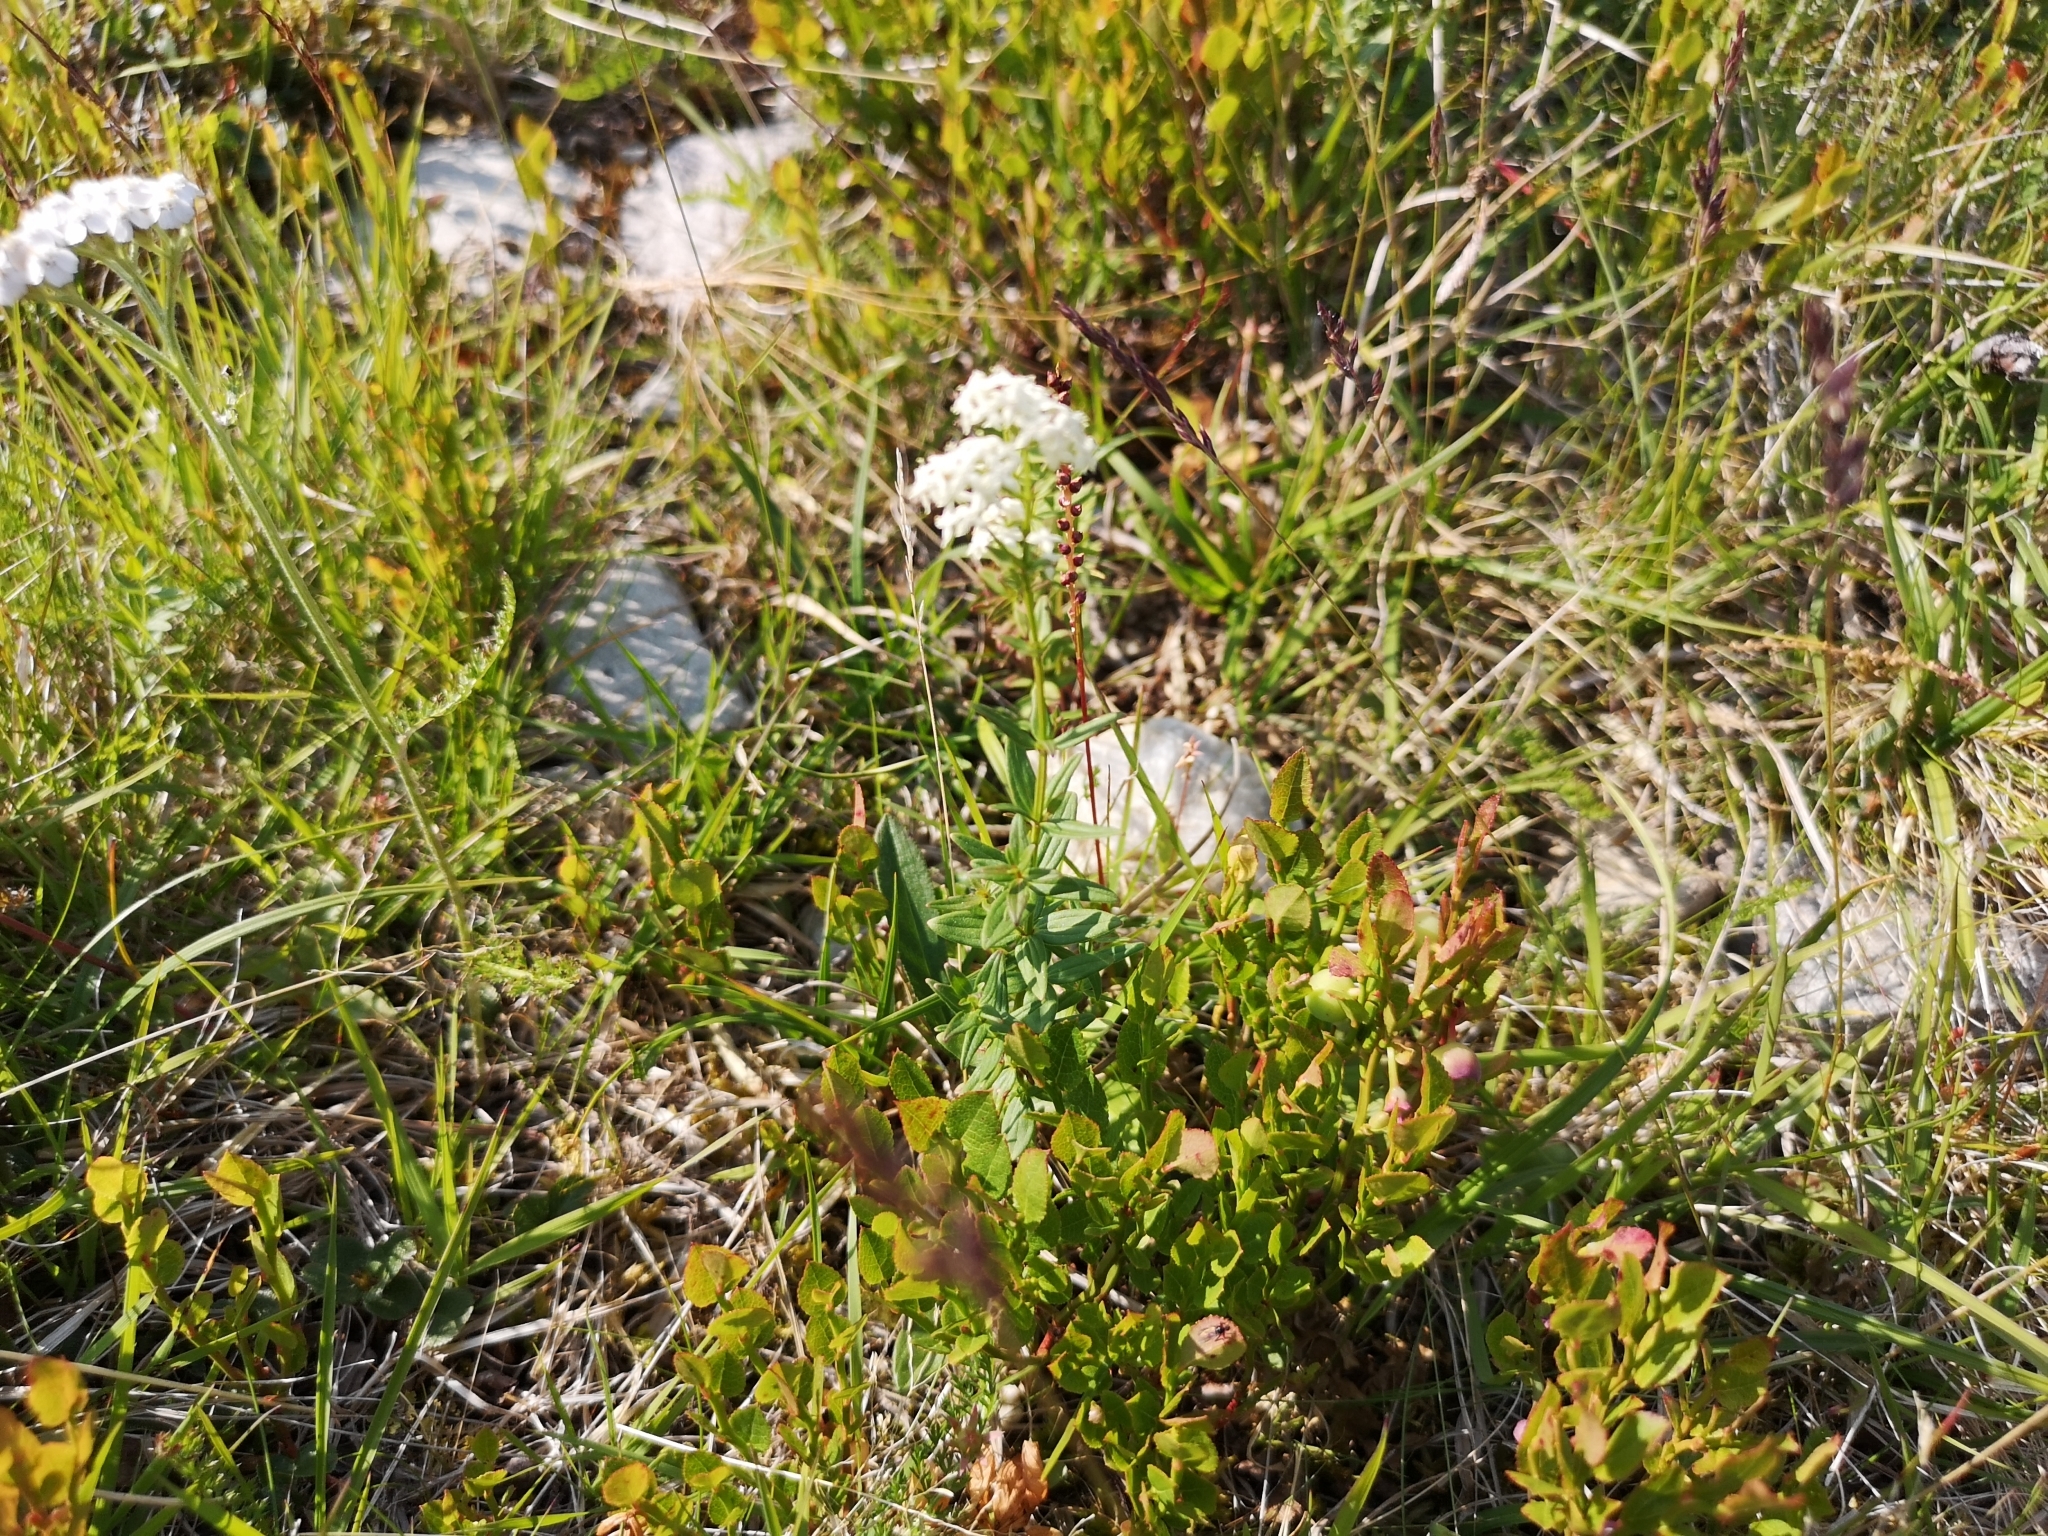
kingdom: Plantae
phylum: Tracheophyta
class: Magnoliopsida
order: Gentianales
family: Rubiaceae
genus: Galium
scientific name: Galium boreale
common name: Northern bedstraw
